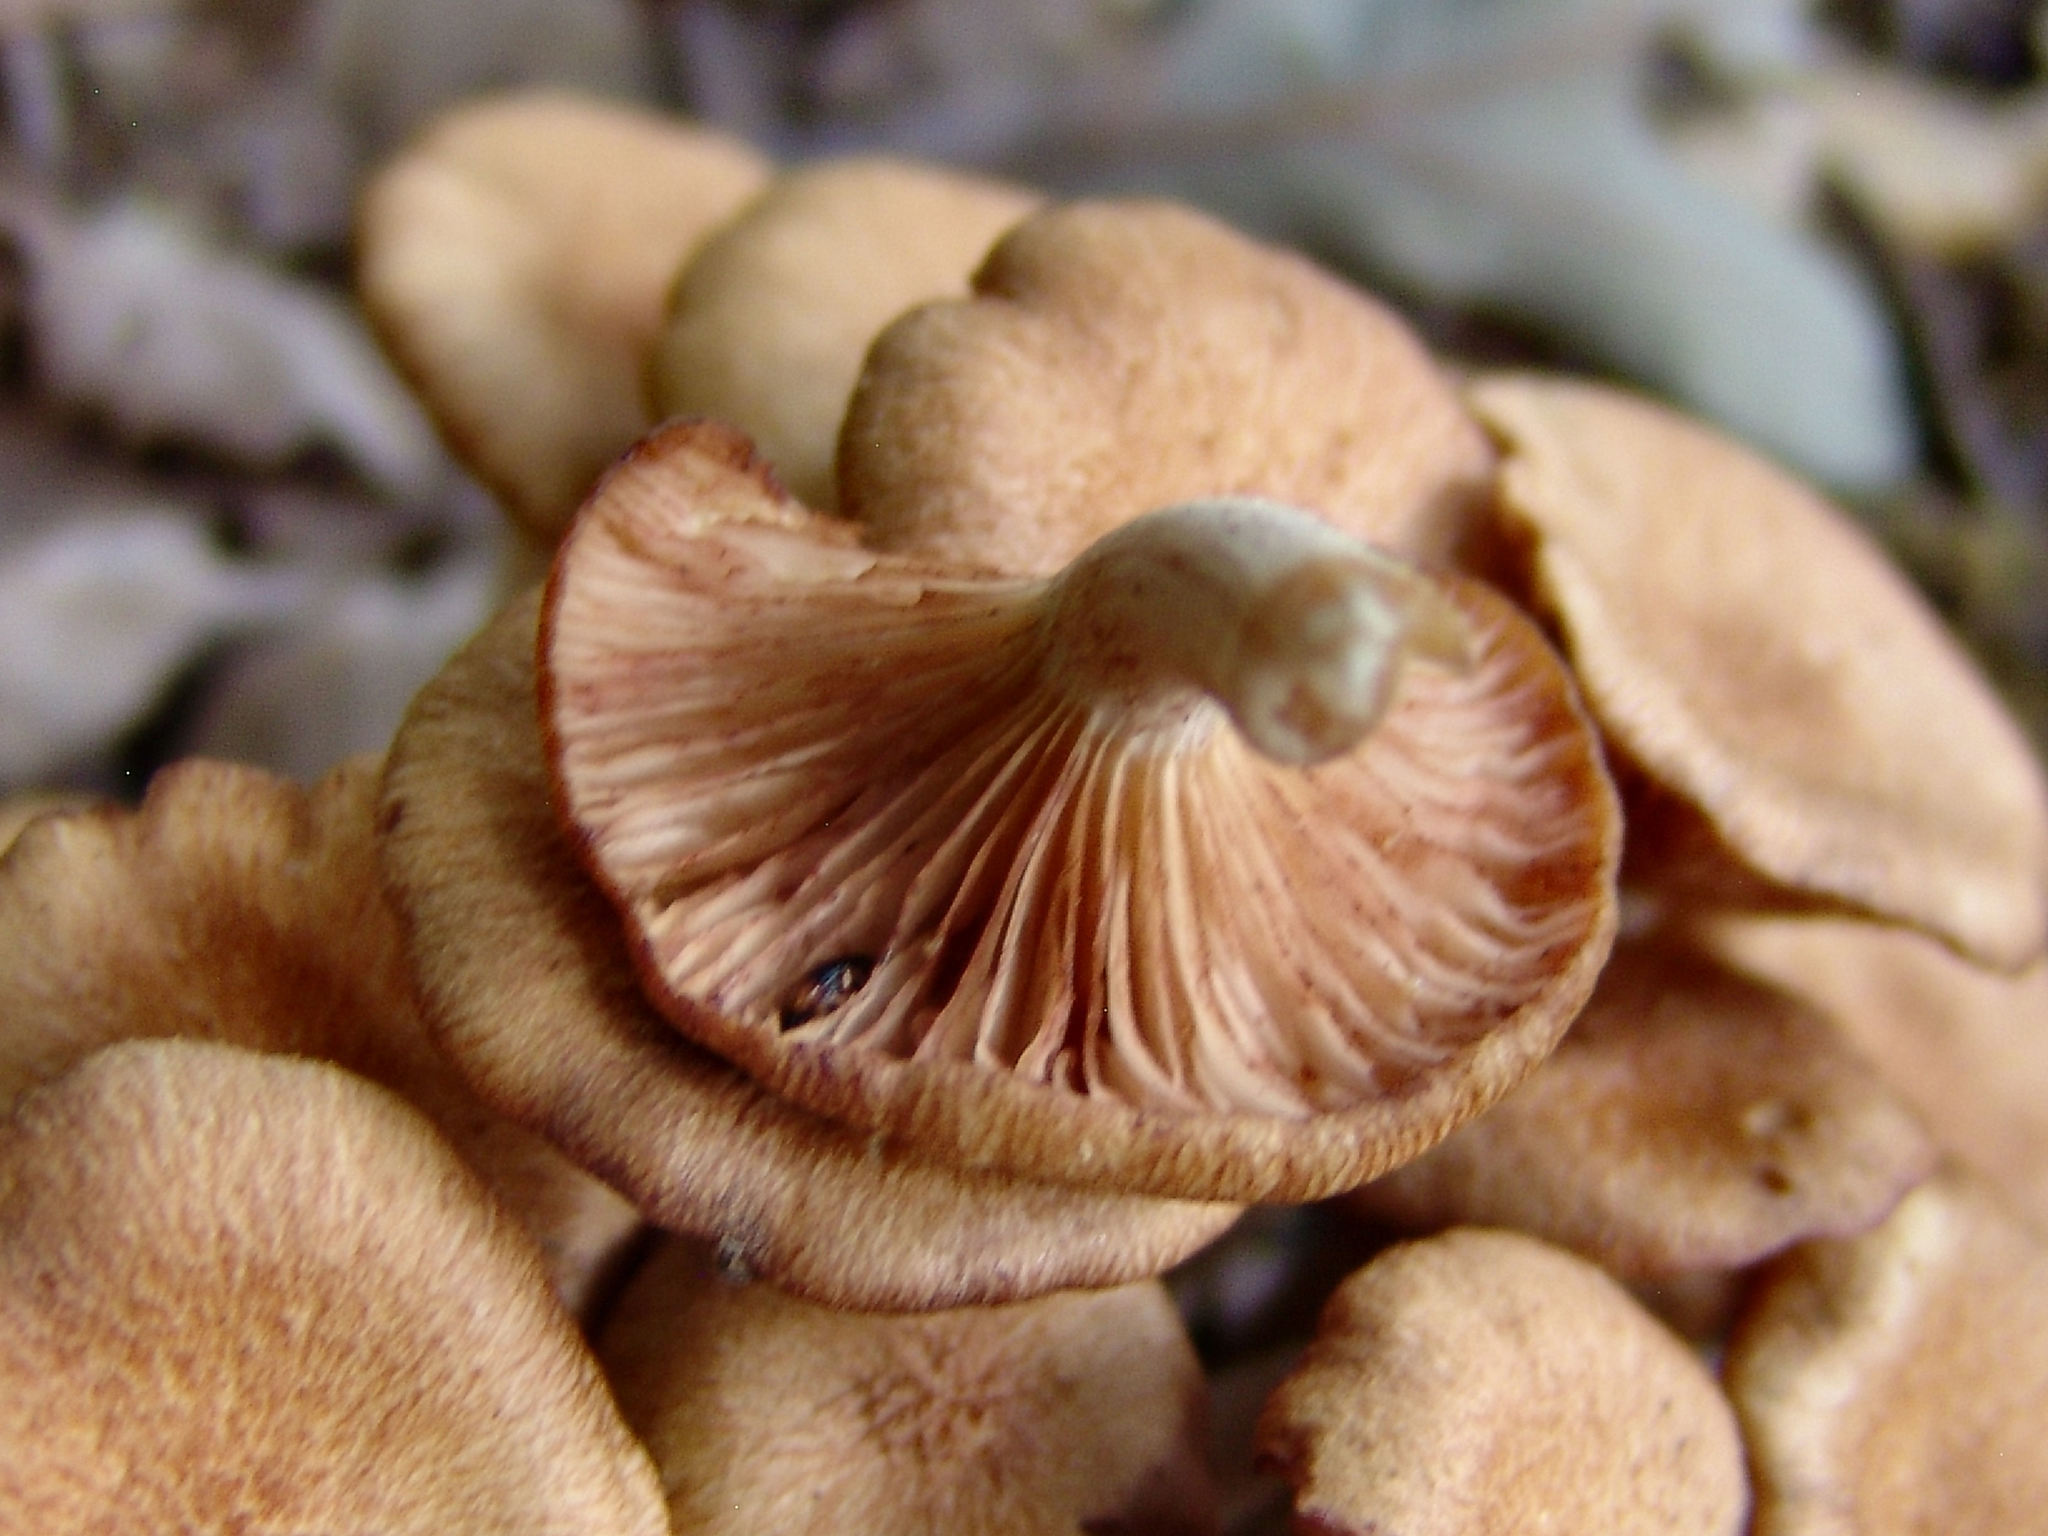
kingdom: Fungi
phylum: Basidiomycota
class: Agaricomycetes
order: Agaricales
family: Physalacriaceae
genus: Desarmillaria
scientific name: Desarmillaria caespitosa
